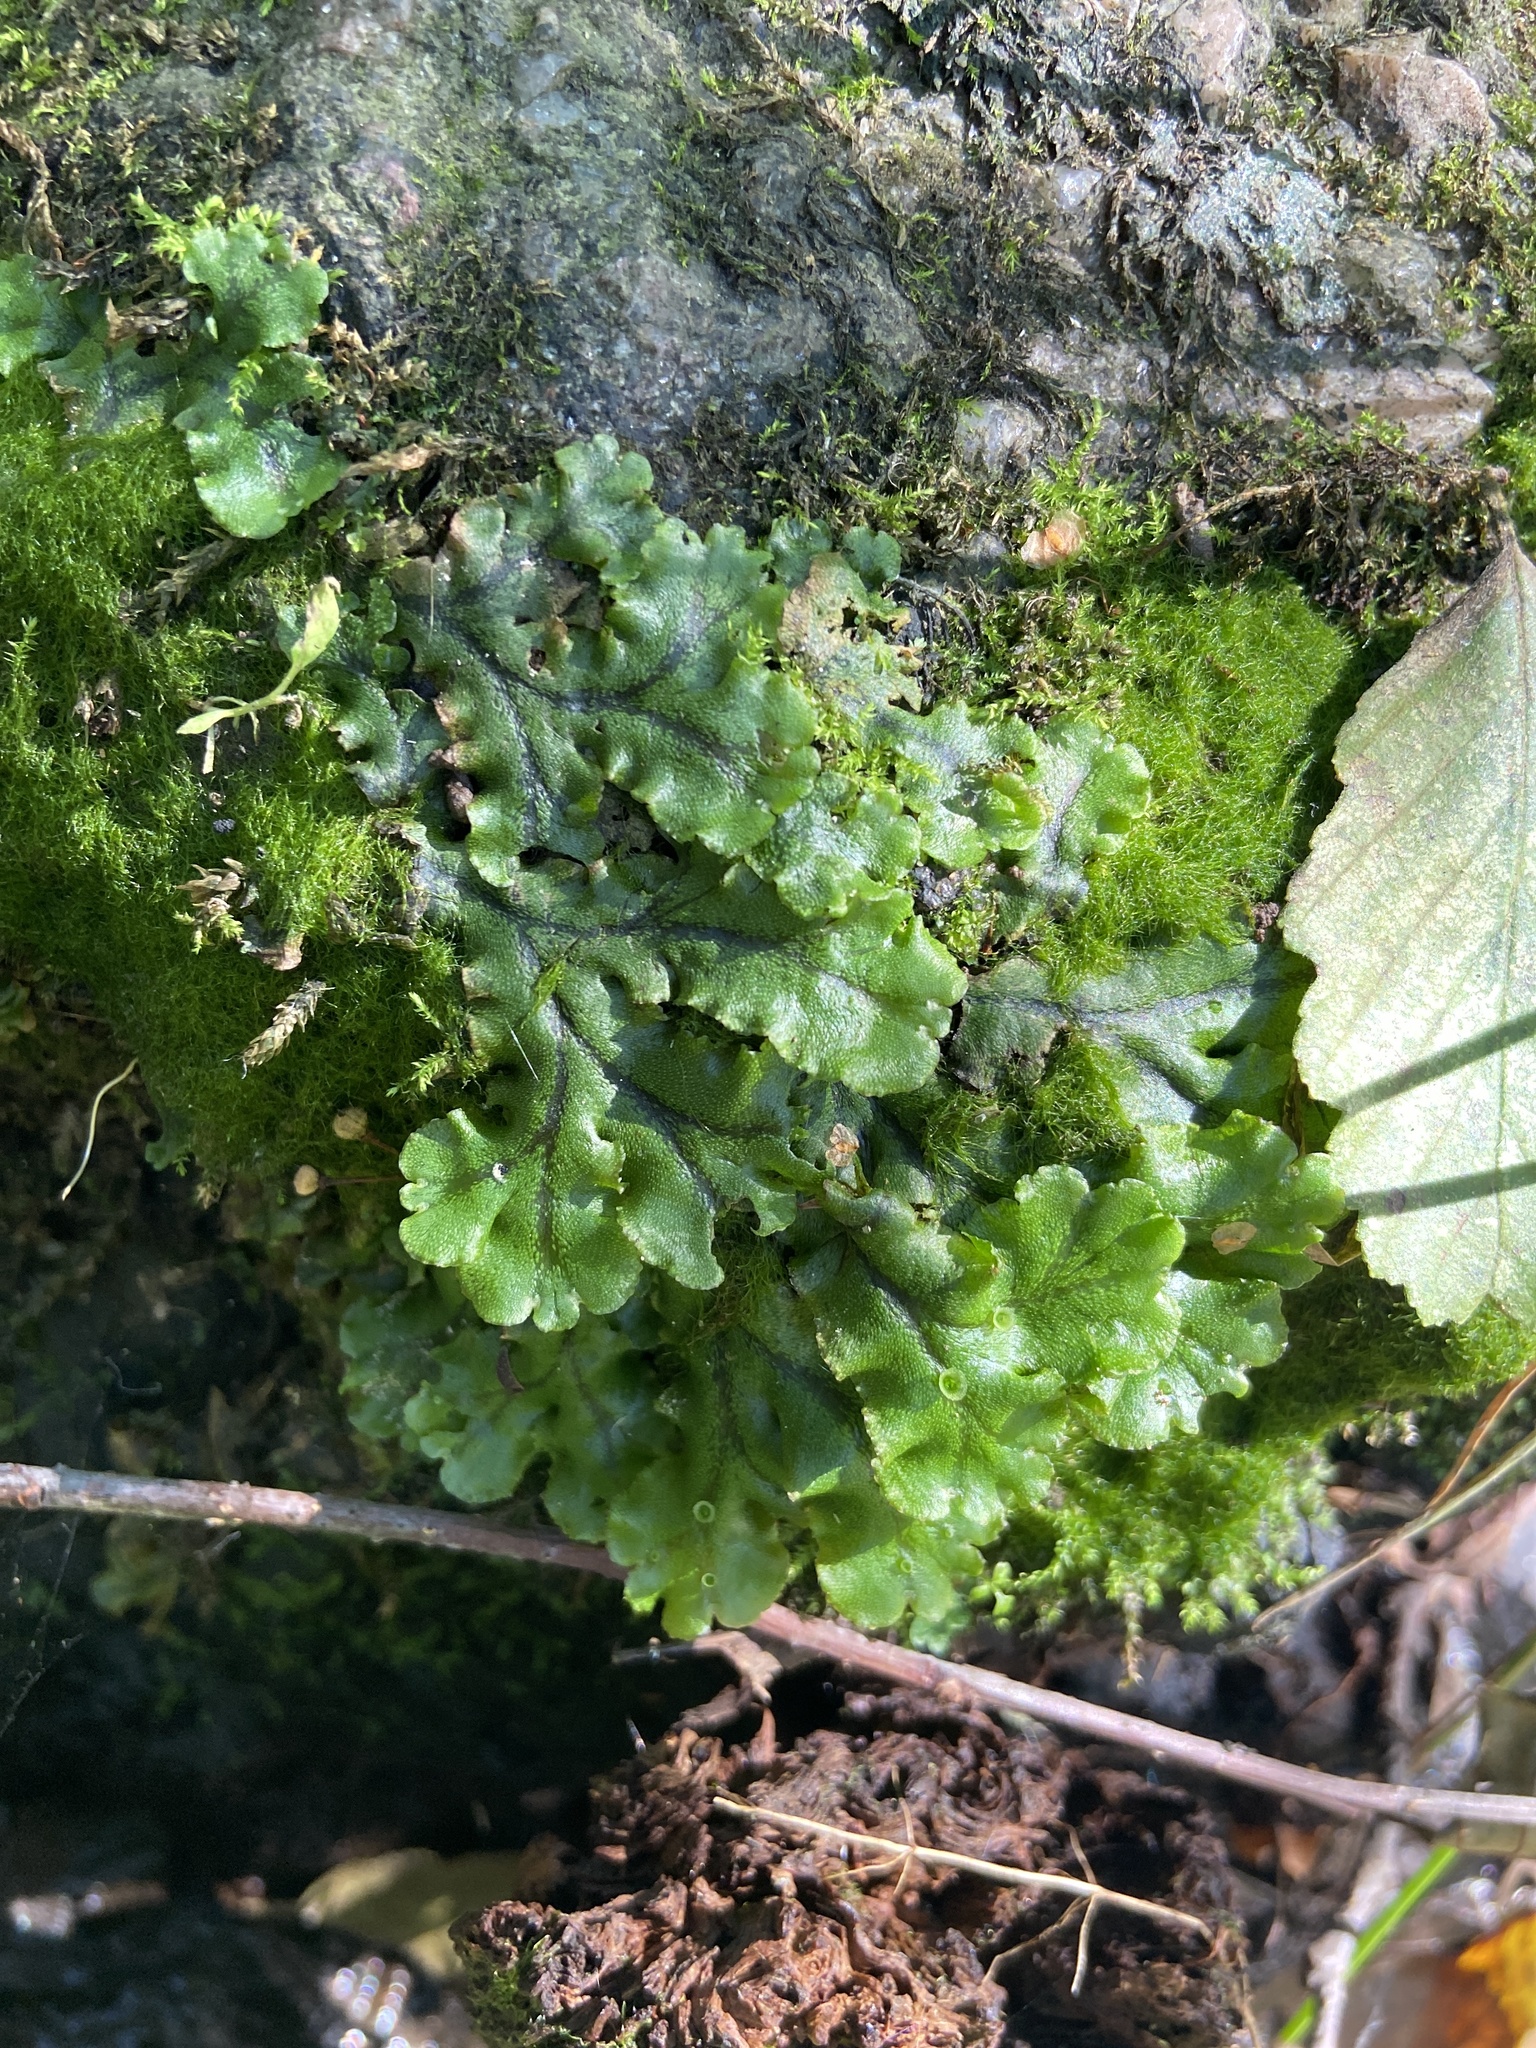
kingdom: Plantae
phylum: Marchantiophyta
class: Marchantiopsida
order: Marchantiales
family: Marchantiaceae
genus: Marchantia
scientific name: Marchantia polymorpha
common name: Common liverwort
